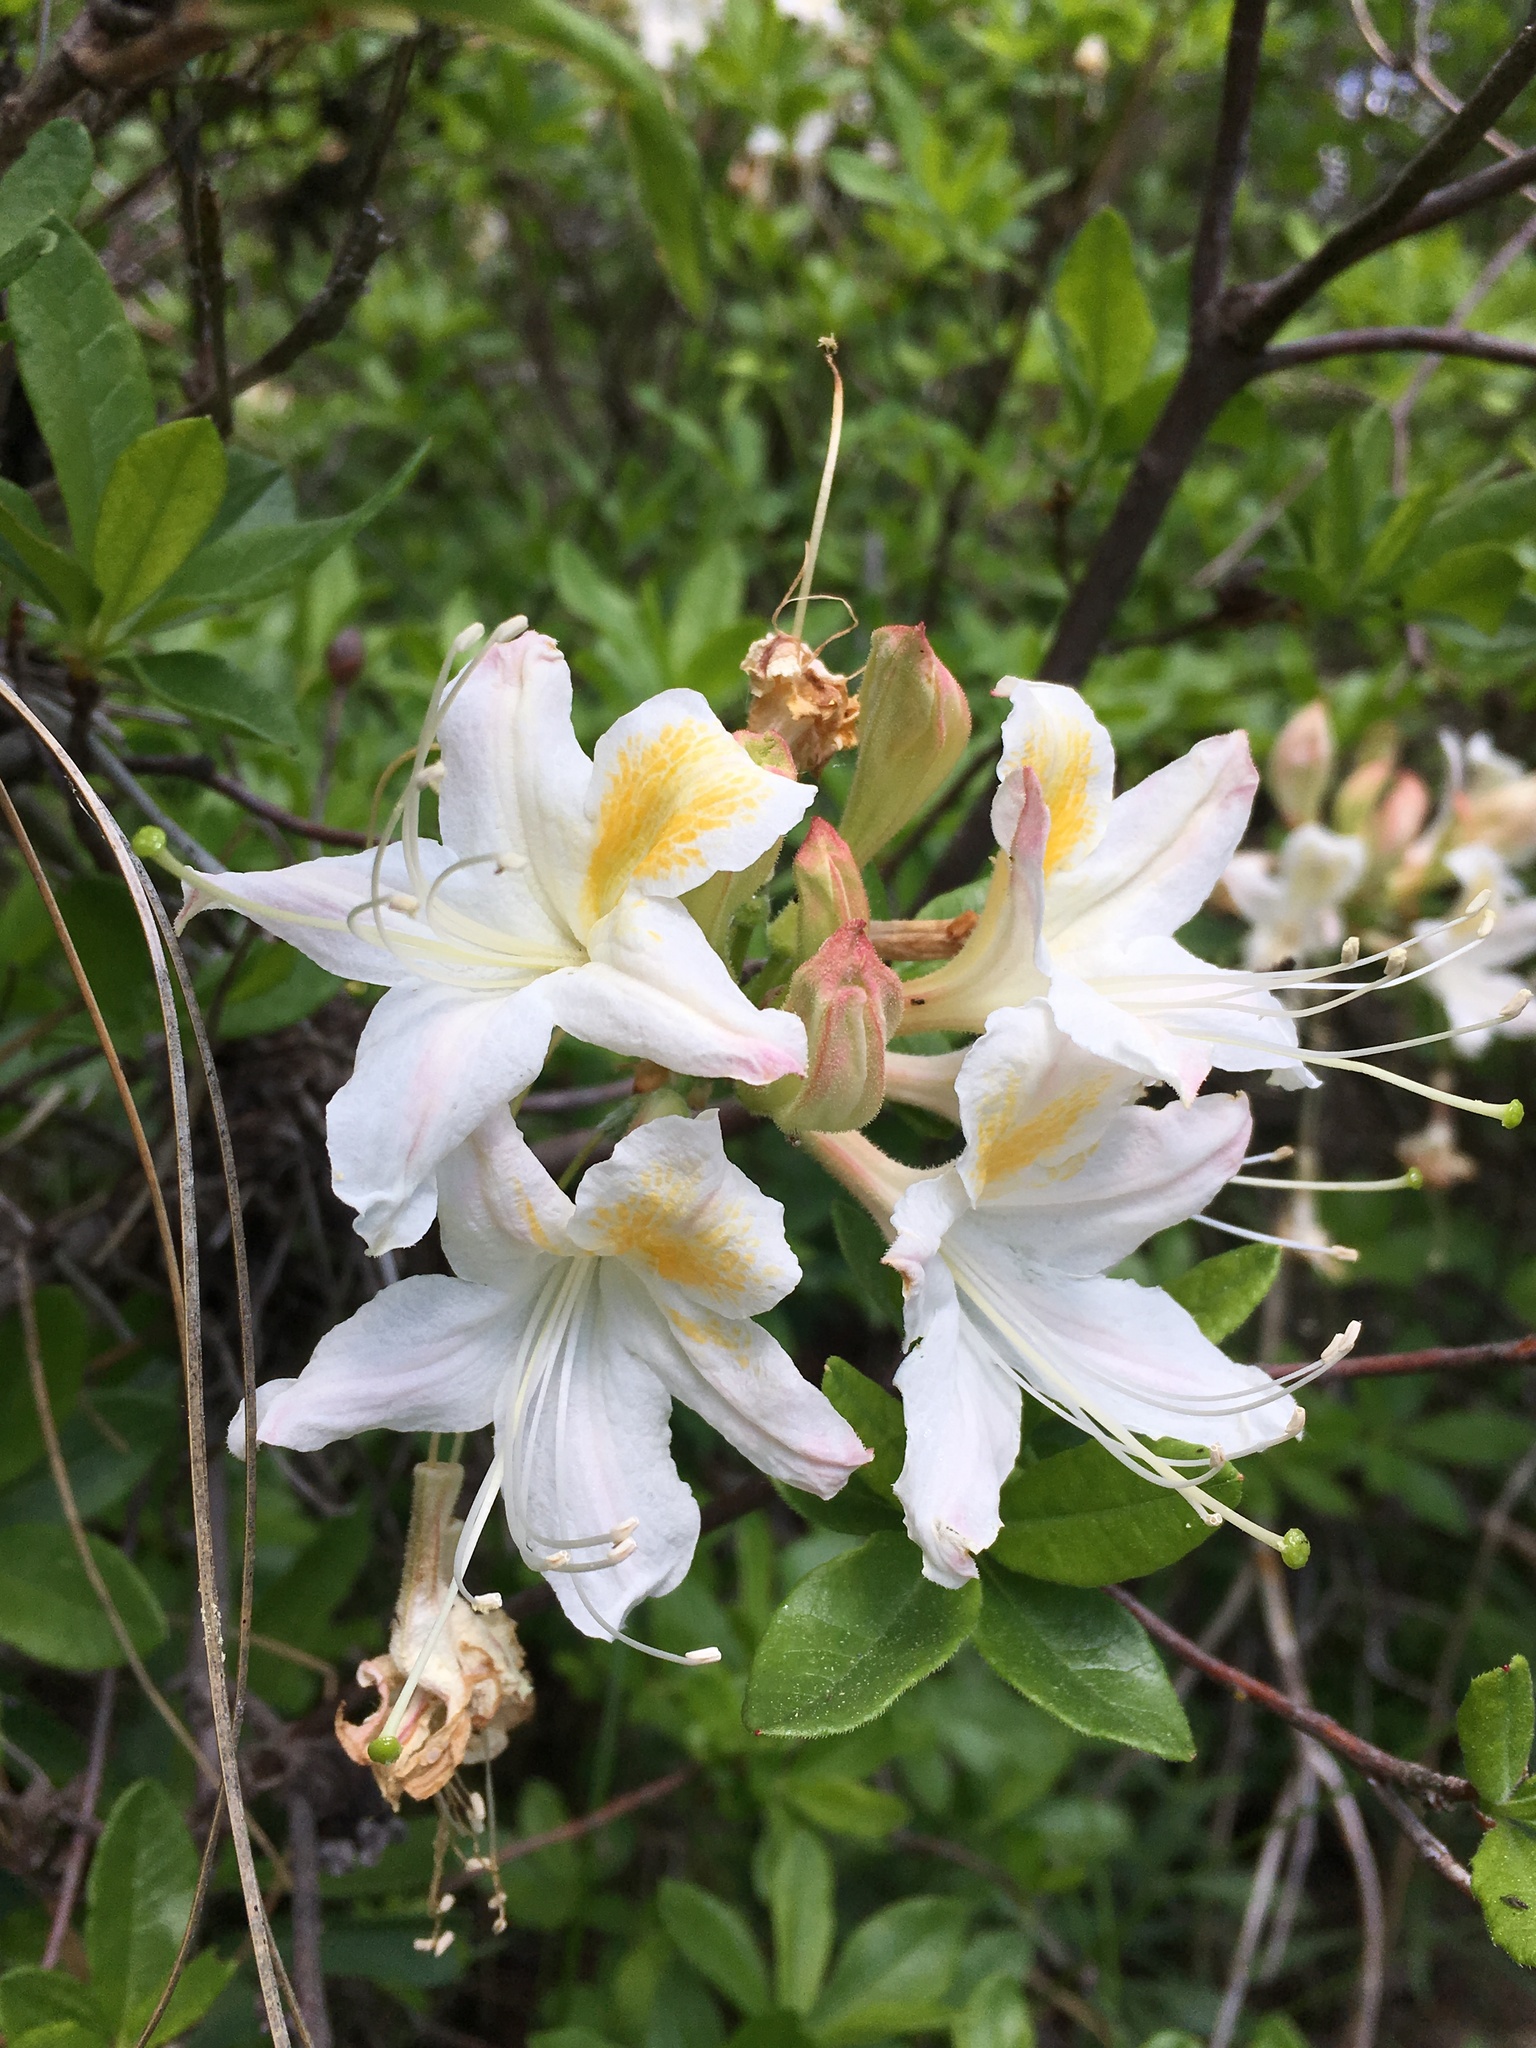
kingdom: Plantae
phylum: Tracheophyta
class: Magnoliopsida
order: Ericales
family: Ericaceae
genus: Rhododendron
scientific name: Rhododendron occidentale
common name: Western azalea
